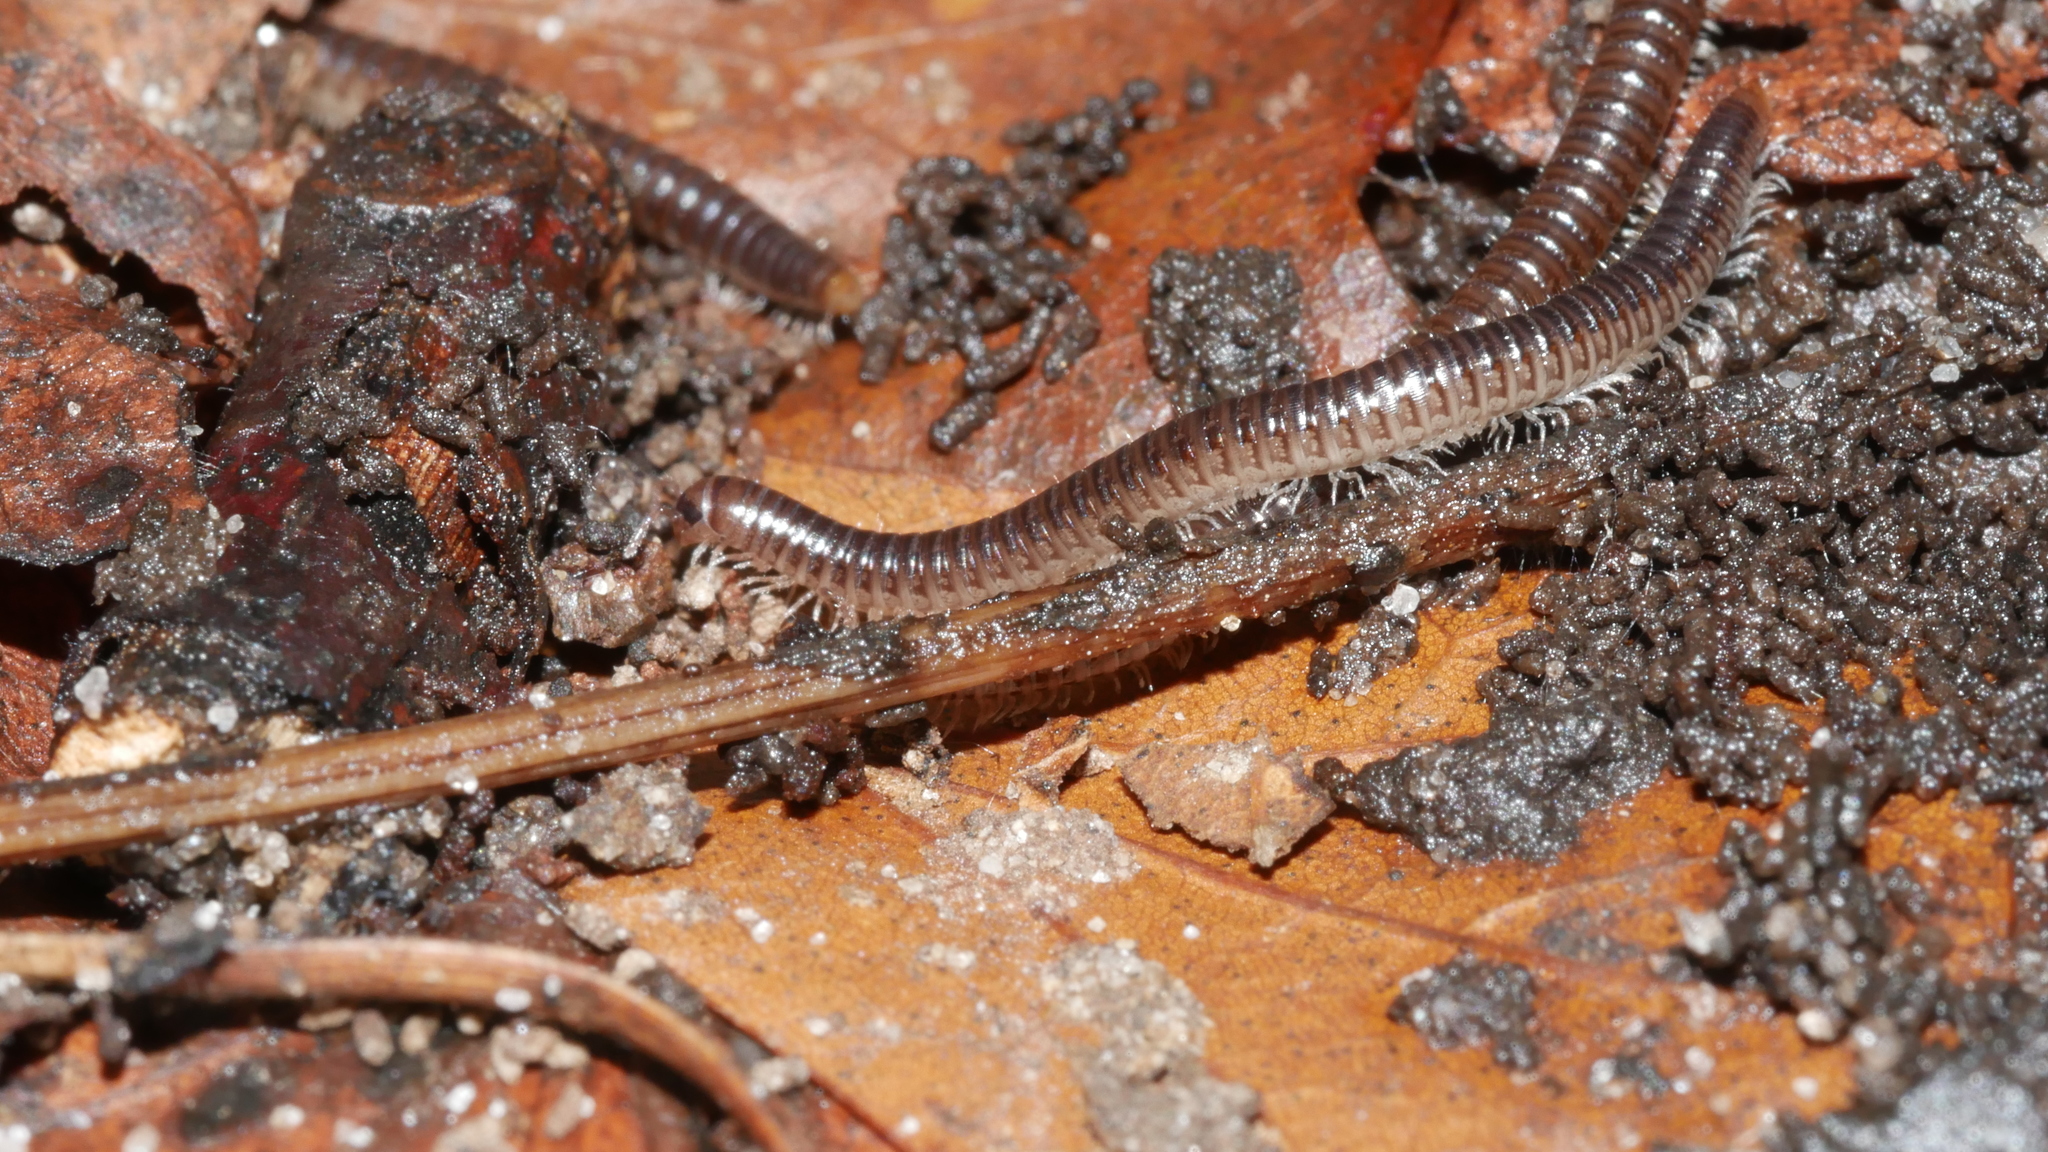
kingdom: Animalia
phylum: Arthropoda
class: Diplopoda
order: Julida
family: Julidae
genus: Ophyiulus
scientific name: Ophyiulus pilosus
